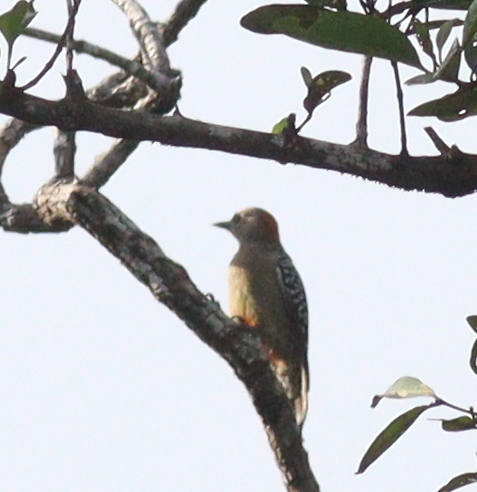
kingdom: Animalia
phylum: Chordata
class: Aves
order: Piciformes
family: Picidae
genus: Melanerpes
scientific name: Melanerpes rubricapillus
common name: Red-crowned woodpecker
